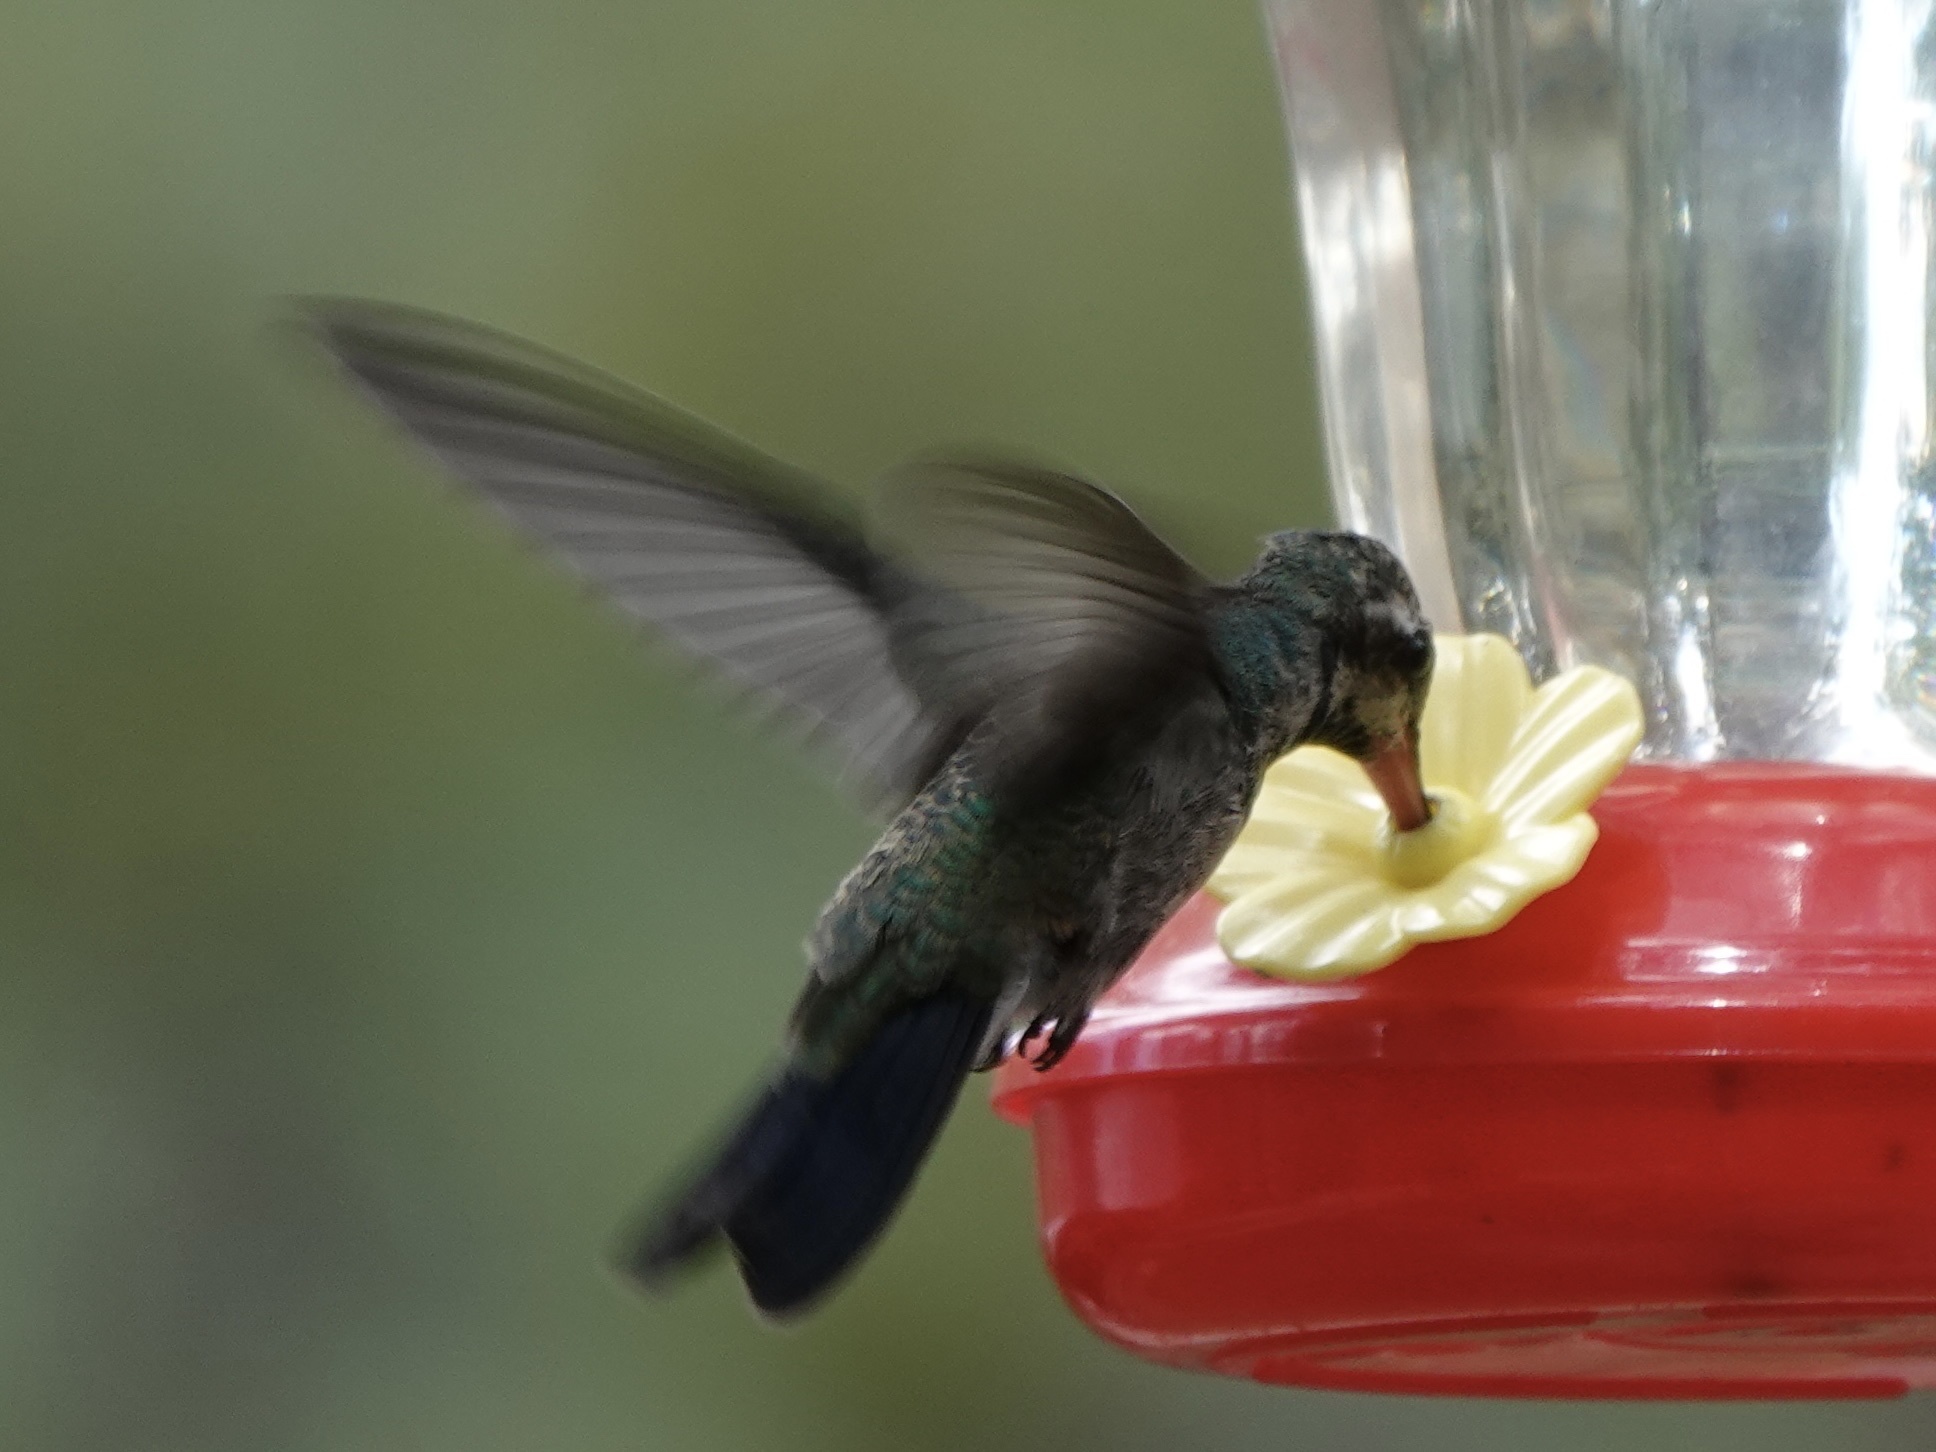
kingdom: Animalia
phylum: Chordata
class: Aves
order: Apodiformes
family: Trochilidae
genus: Cynanthus
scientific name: Cynanthus latirostris
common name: Broad-billed hummingbird
